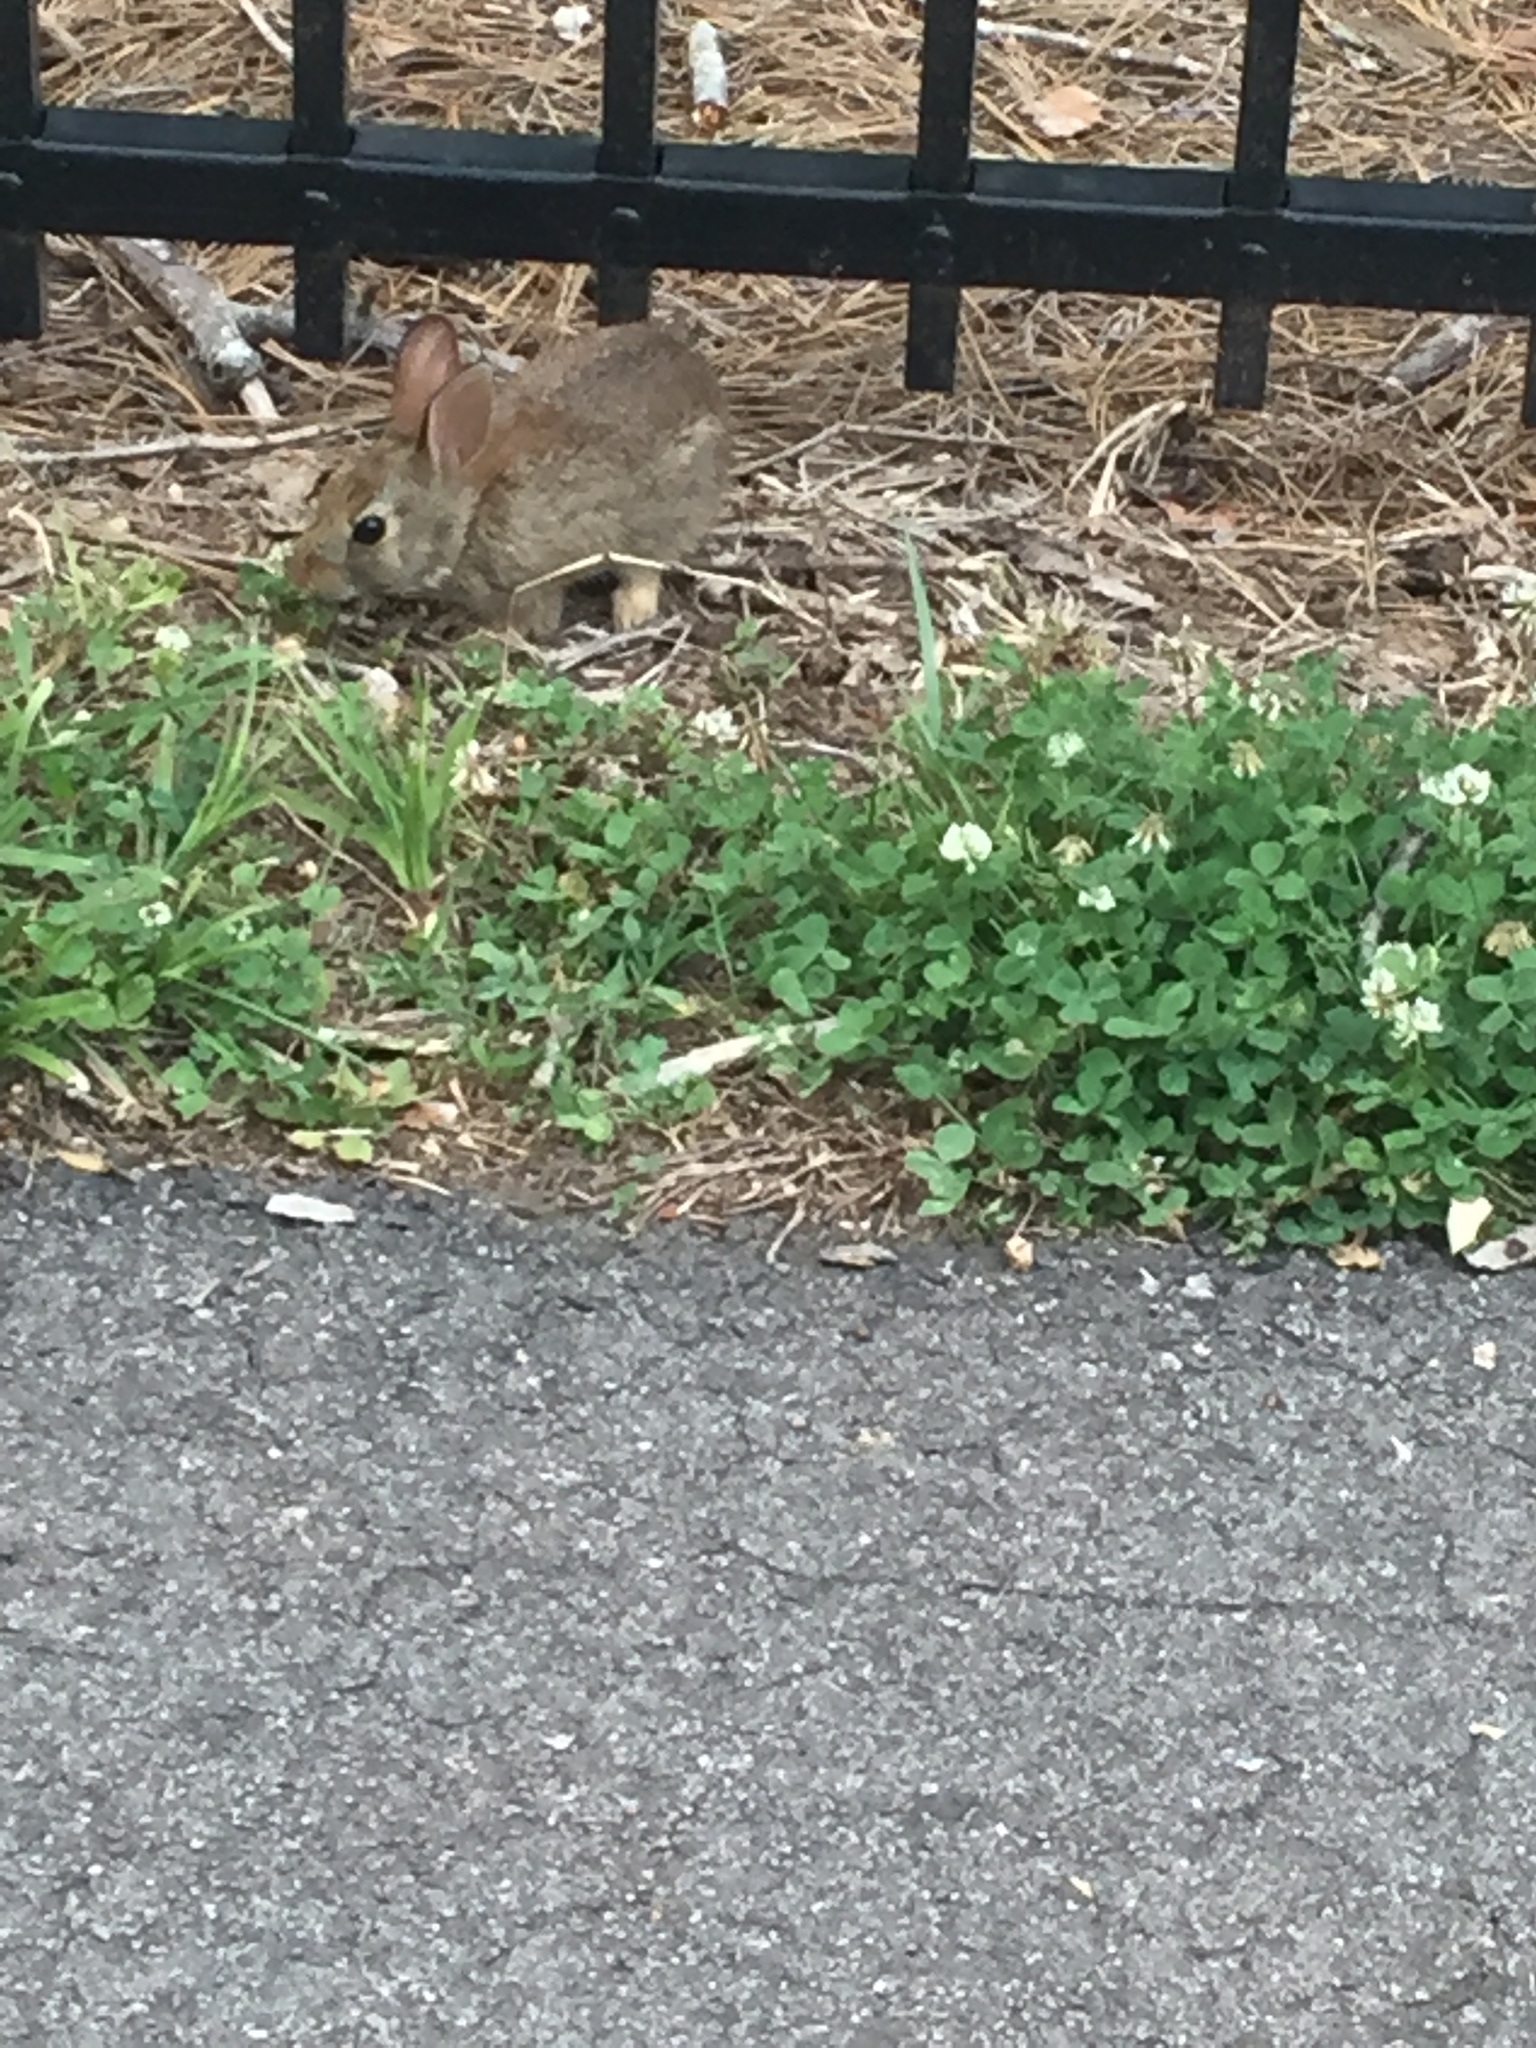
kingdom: Animalia
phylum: Chordata
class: Mammalia
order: Lagomorpha
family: Leporidae
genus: Sylvilagus
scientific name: Sylvilagus floridanus
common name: Eastern cottontail
